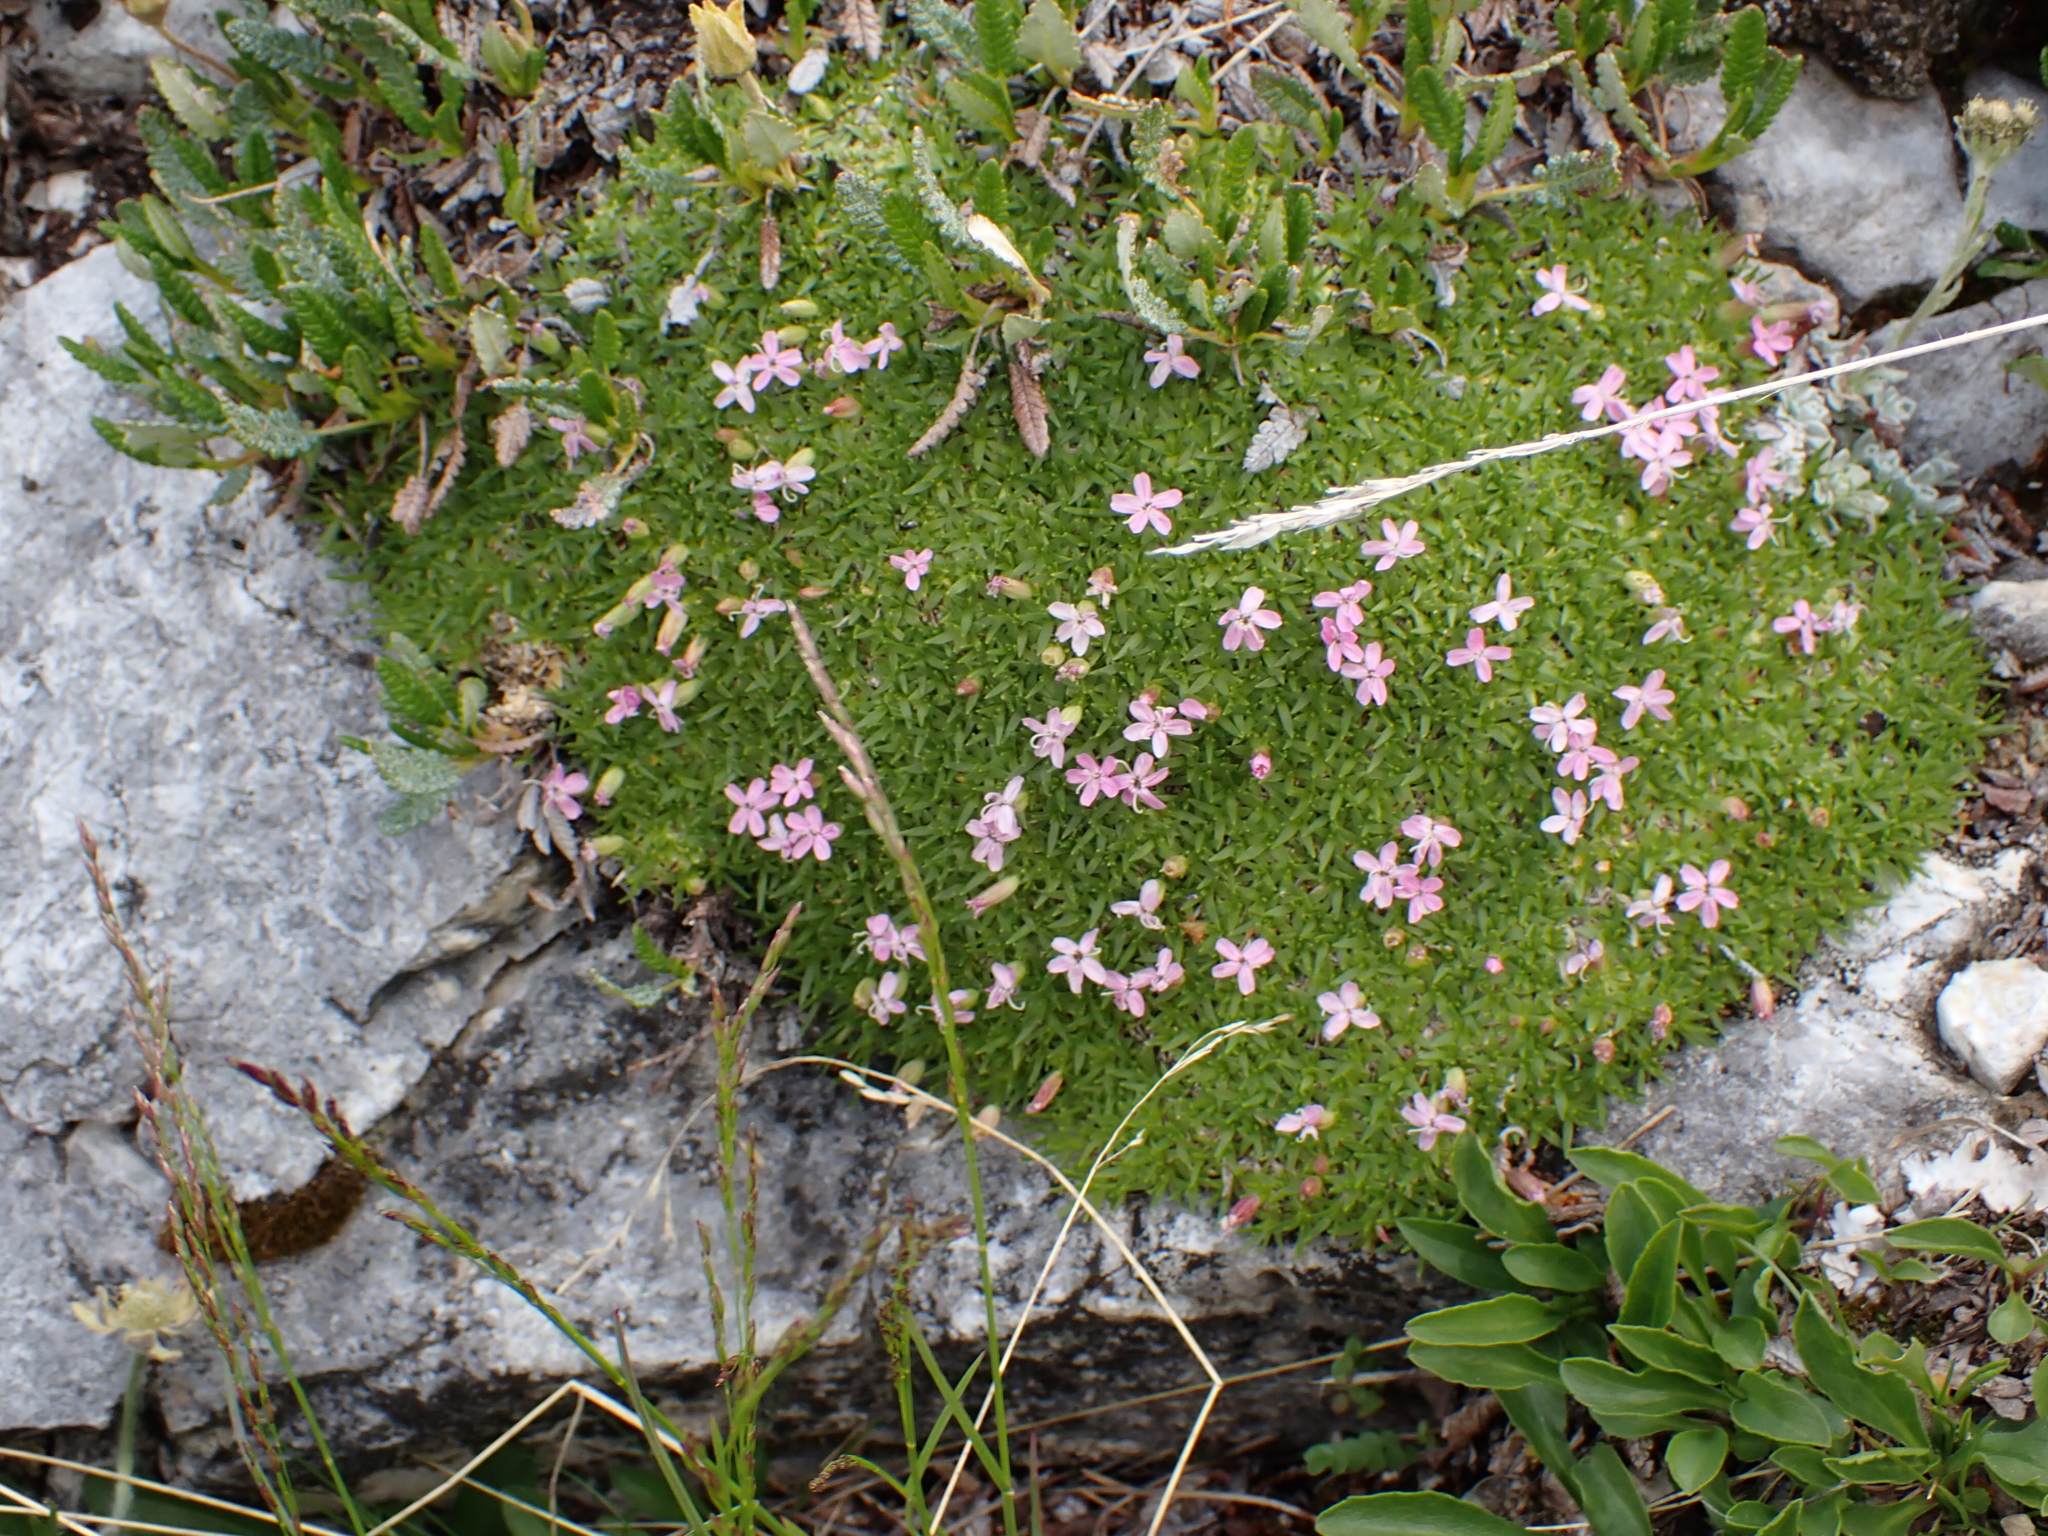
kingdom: Plantae
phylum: Tracheophyta
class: Magnoliopsida
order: Caryophyllales
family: Caryophyllaceae
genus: Silene
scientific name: Silene acaulis
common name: Moss campion
